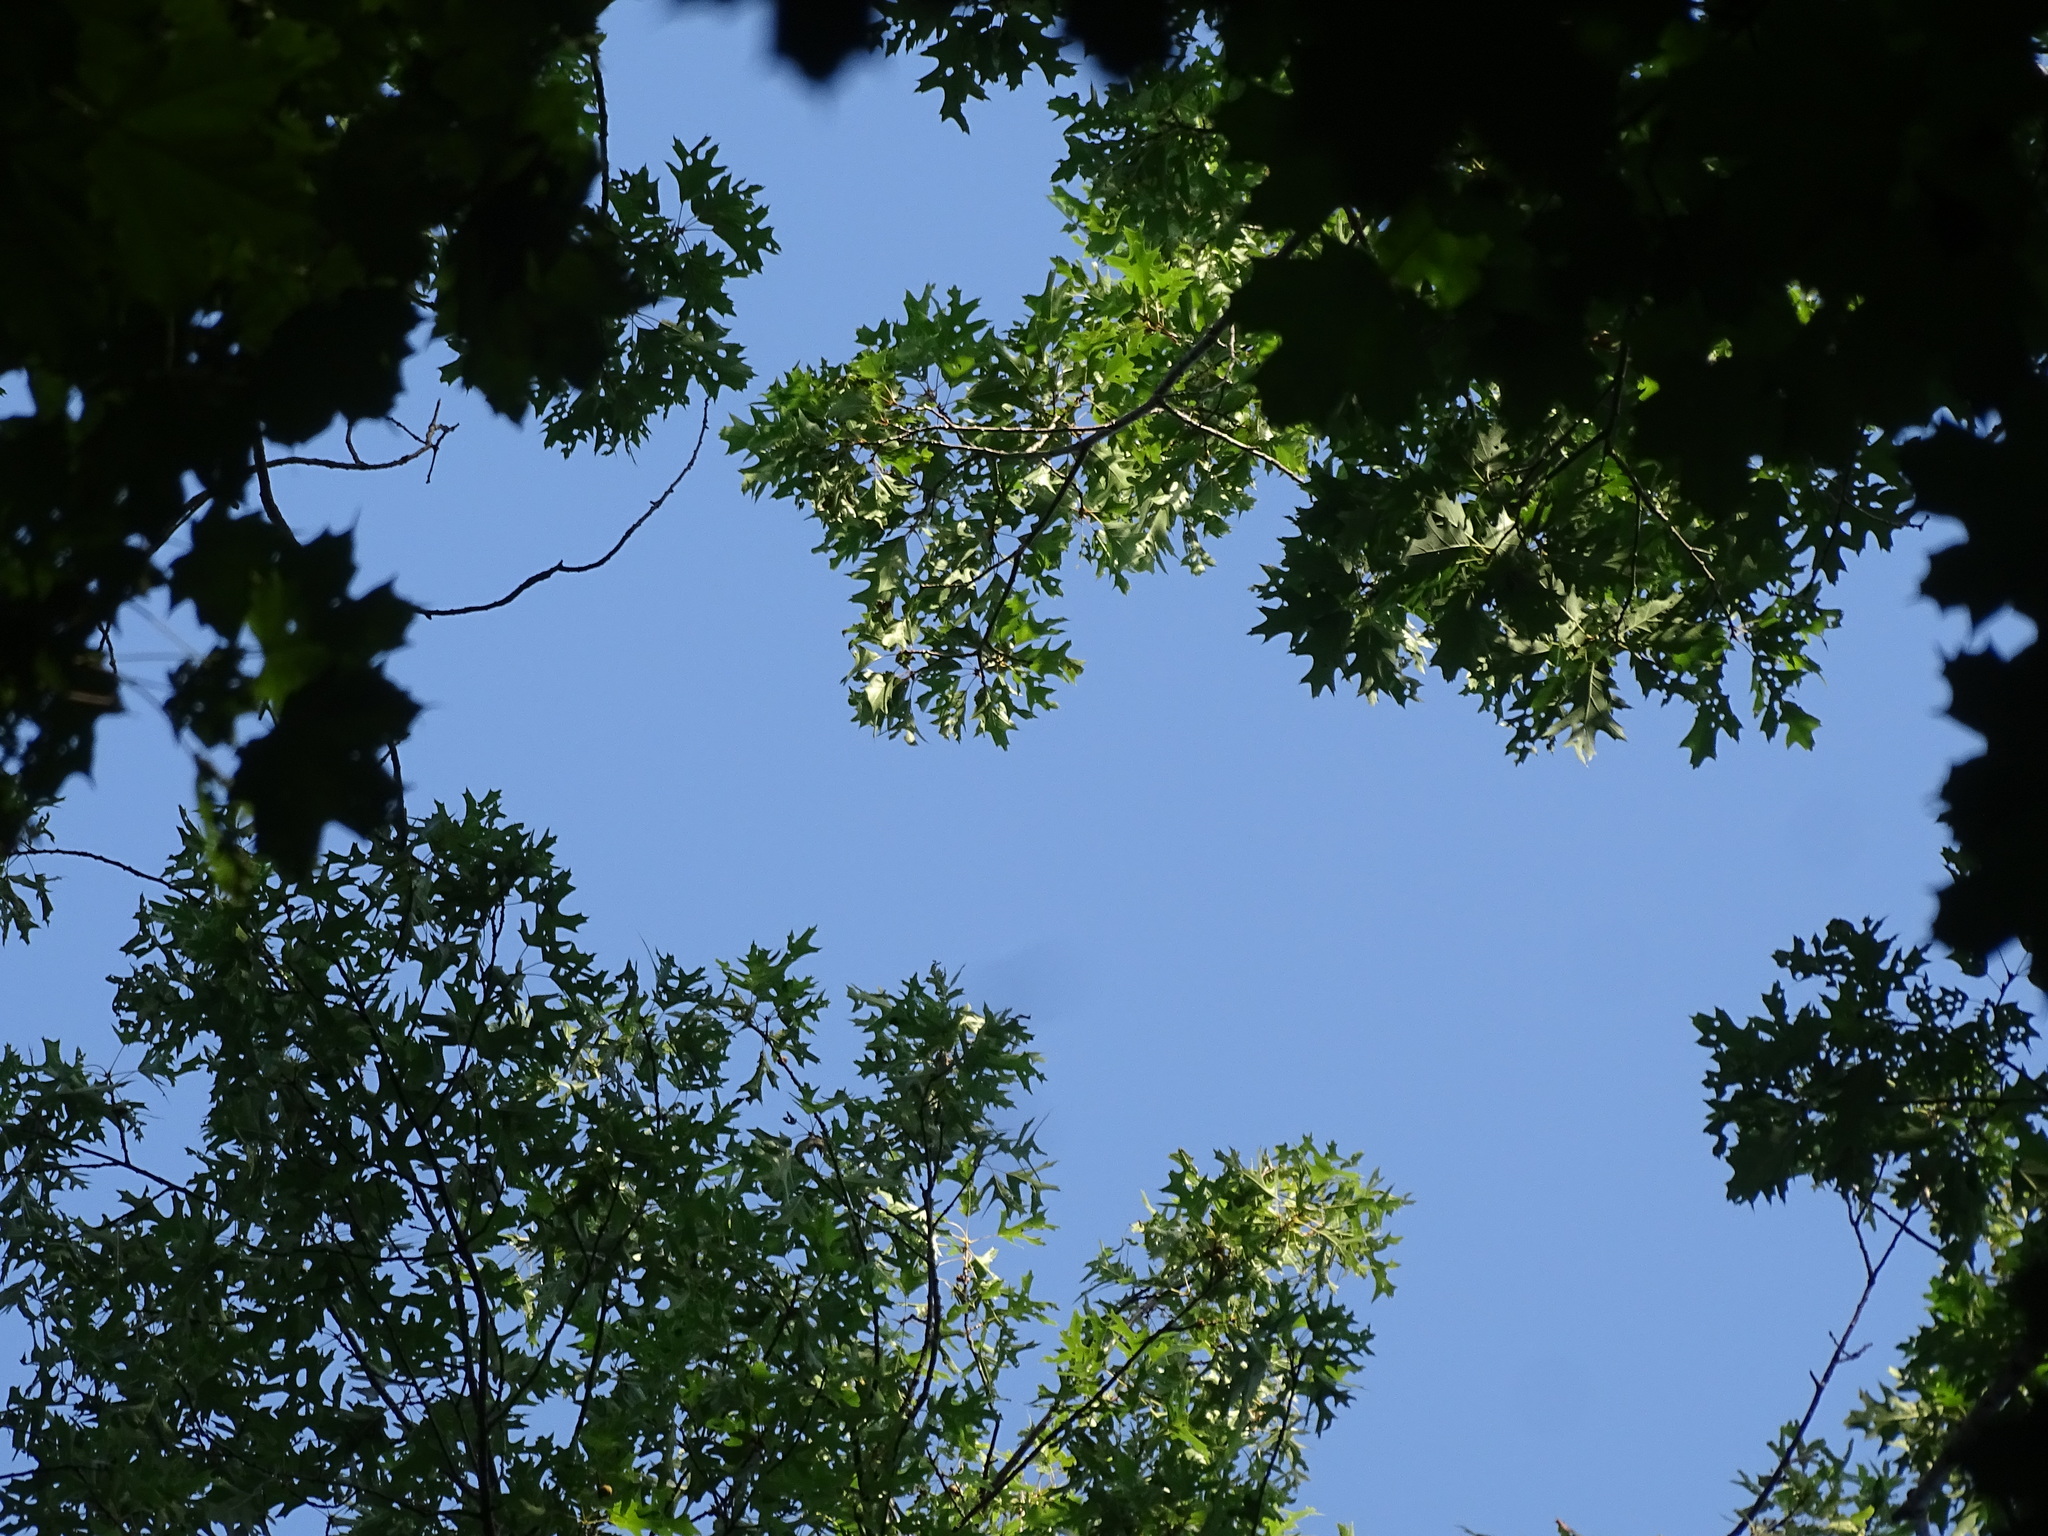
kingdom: Plantae
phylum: Tracheophyta
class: Magnoliopsida
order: Fagales
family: Fagaceae
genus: Quercus
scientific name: Quercus velutina
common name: Black oak
